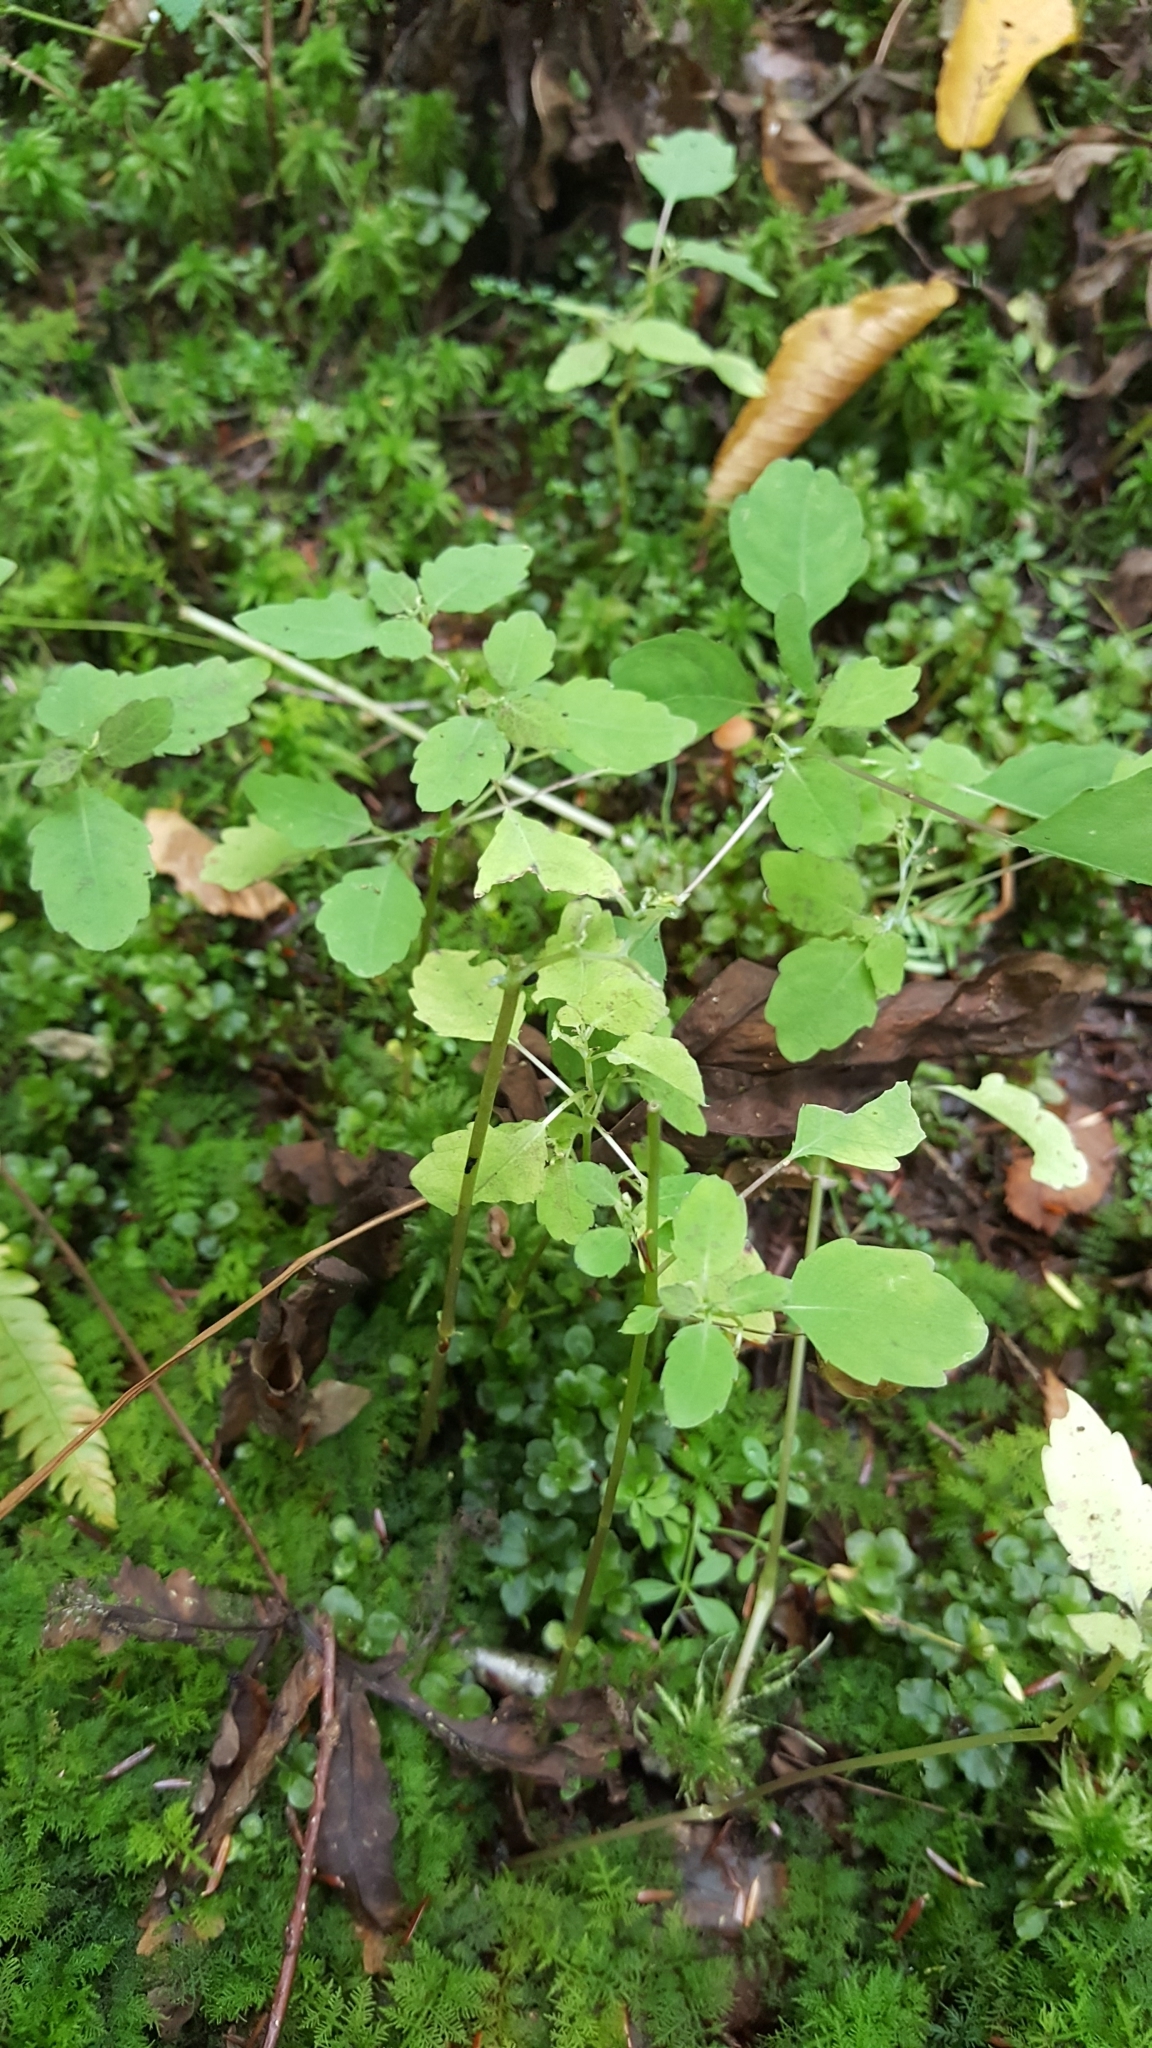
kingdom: Plantae
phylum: Tracheophyta
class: Magnoliopsida
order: Ericales
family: Balsaminaceae
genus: Impatiens
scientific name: Impatiens capensis
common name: Orange balsam
